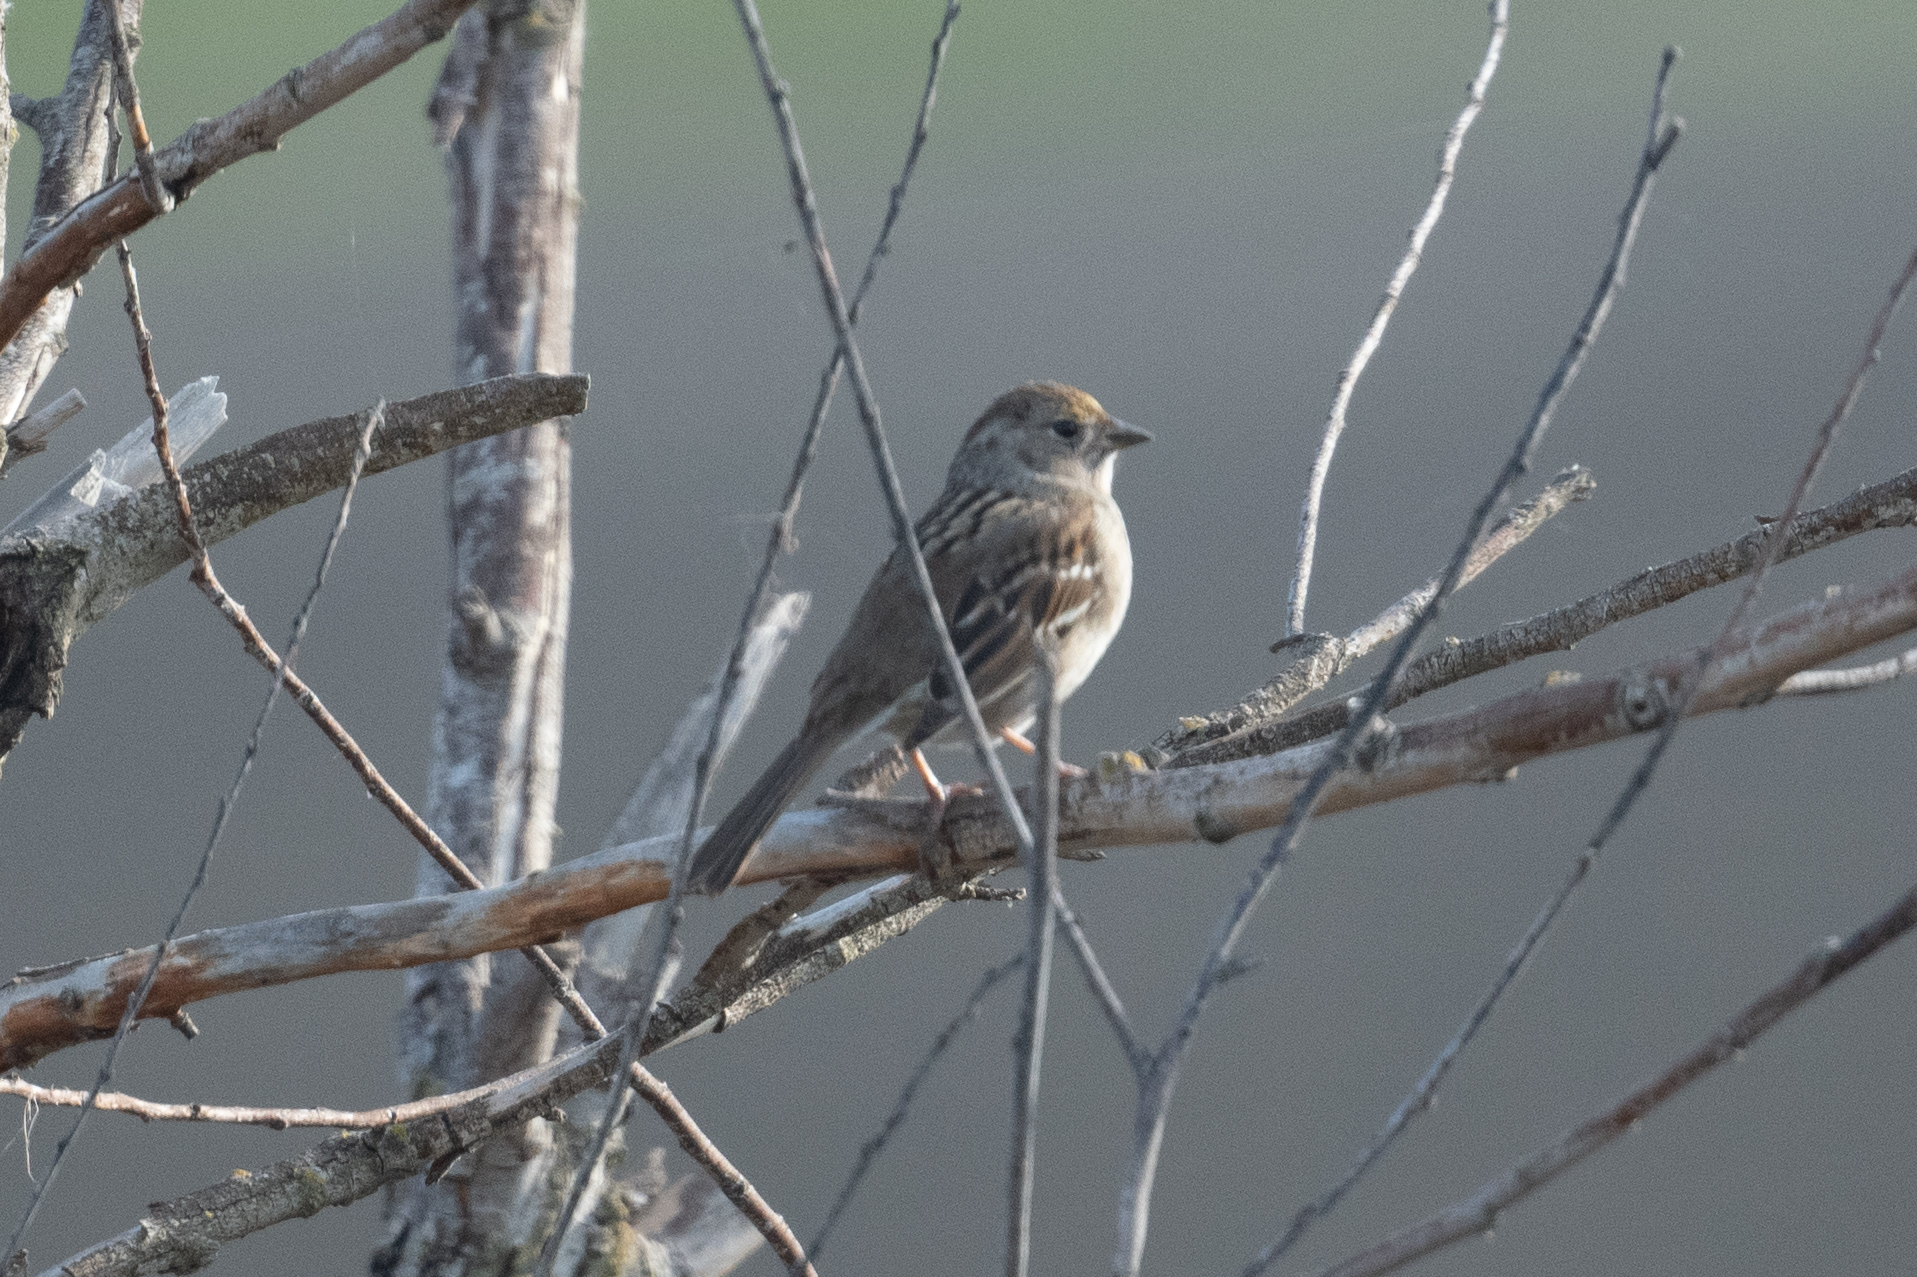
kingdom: Animalia
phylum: Chordata
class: Aves
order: Passeriformes
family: Passerellidae
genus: Zonotrichia
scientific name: Zonotrichia atricapilla
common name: Golden-crowned sparrow
